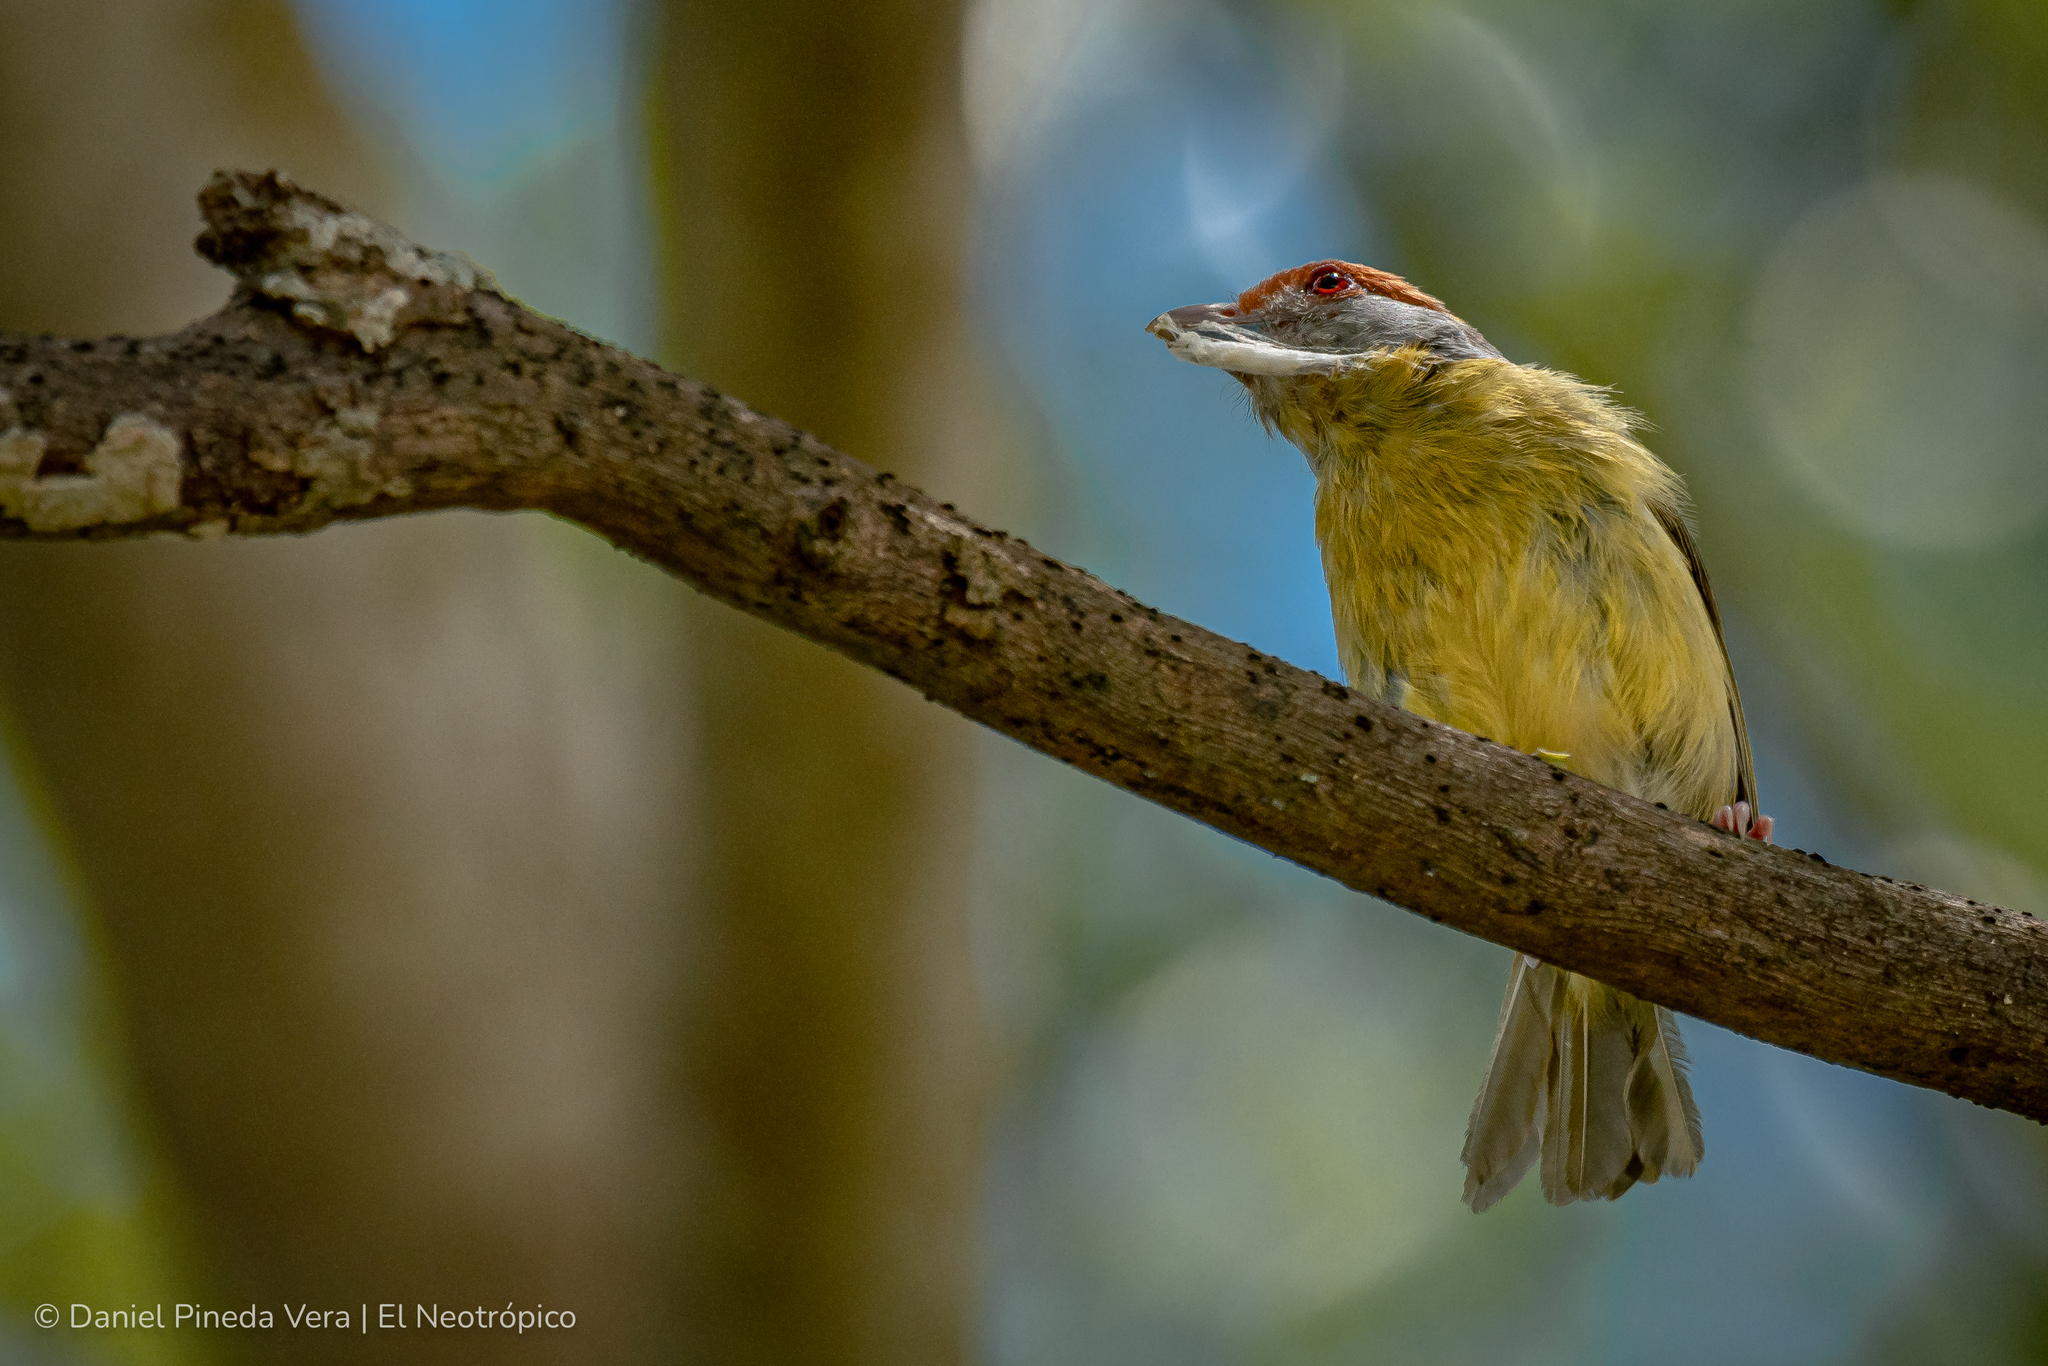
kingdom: Animalia
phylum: Chordata
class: Aves
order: Passeriformes
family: Vireonidae
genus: Cyclarhis
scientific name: Cyclarhis gujanensis
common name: Rufous-browed peppershrike
